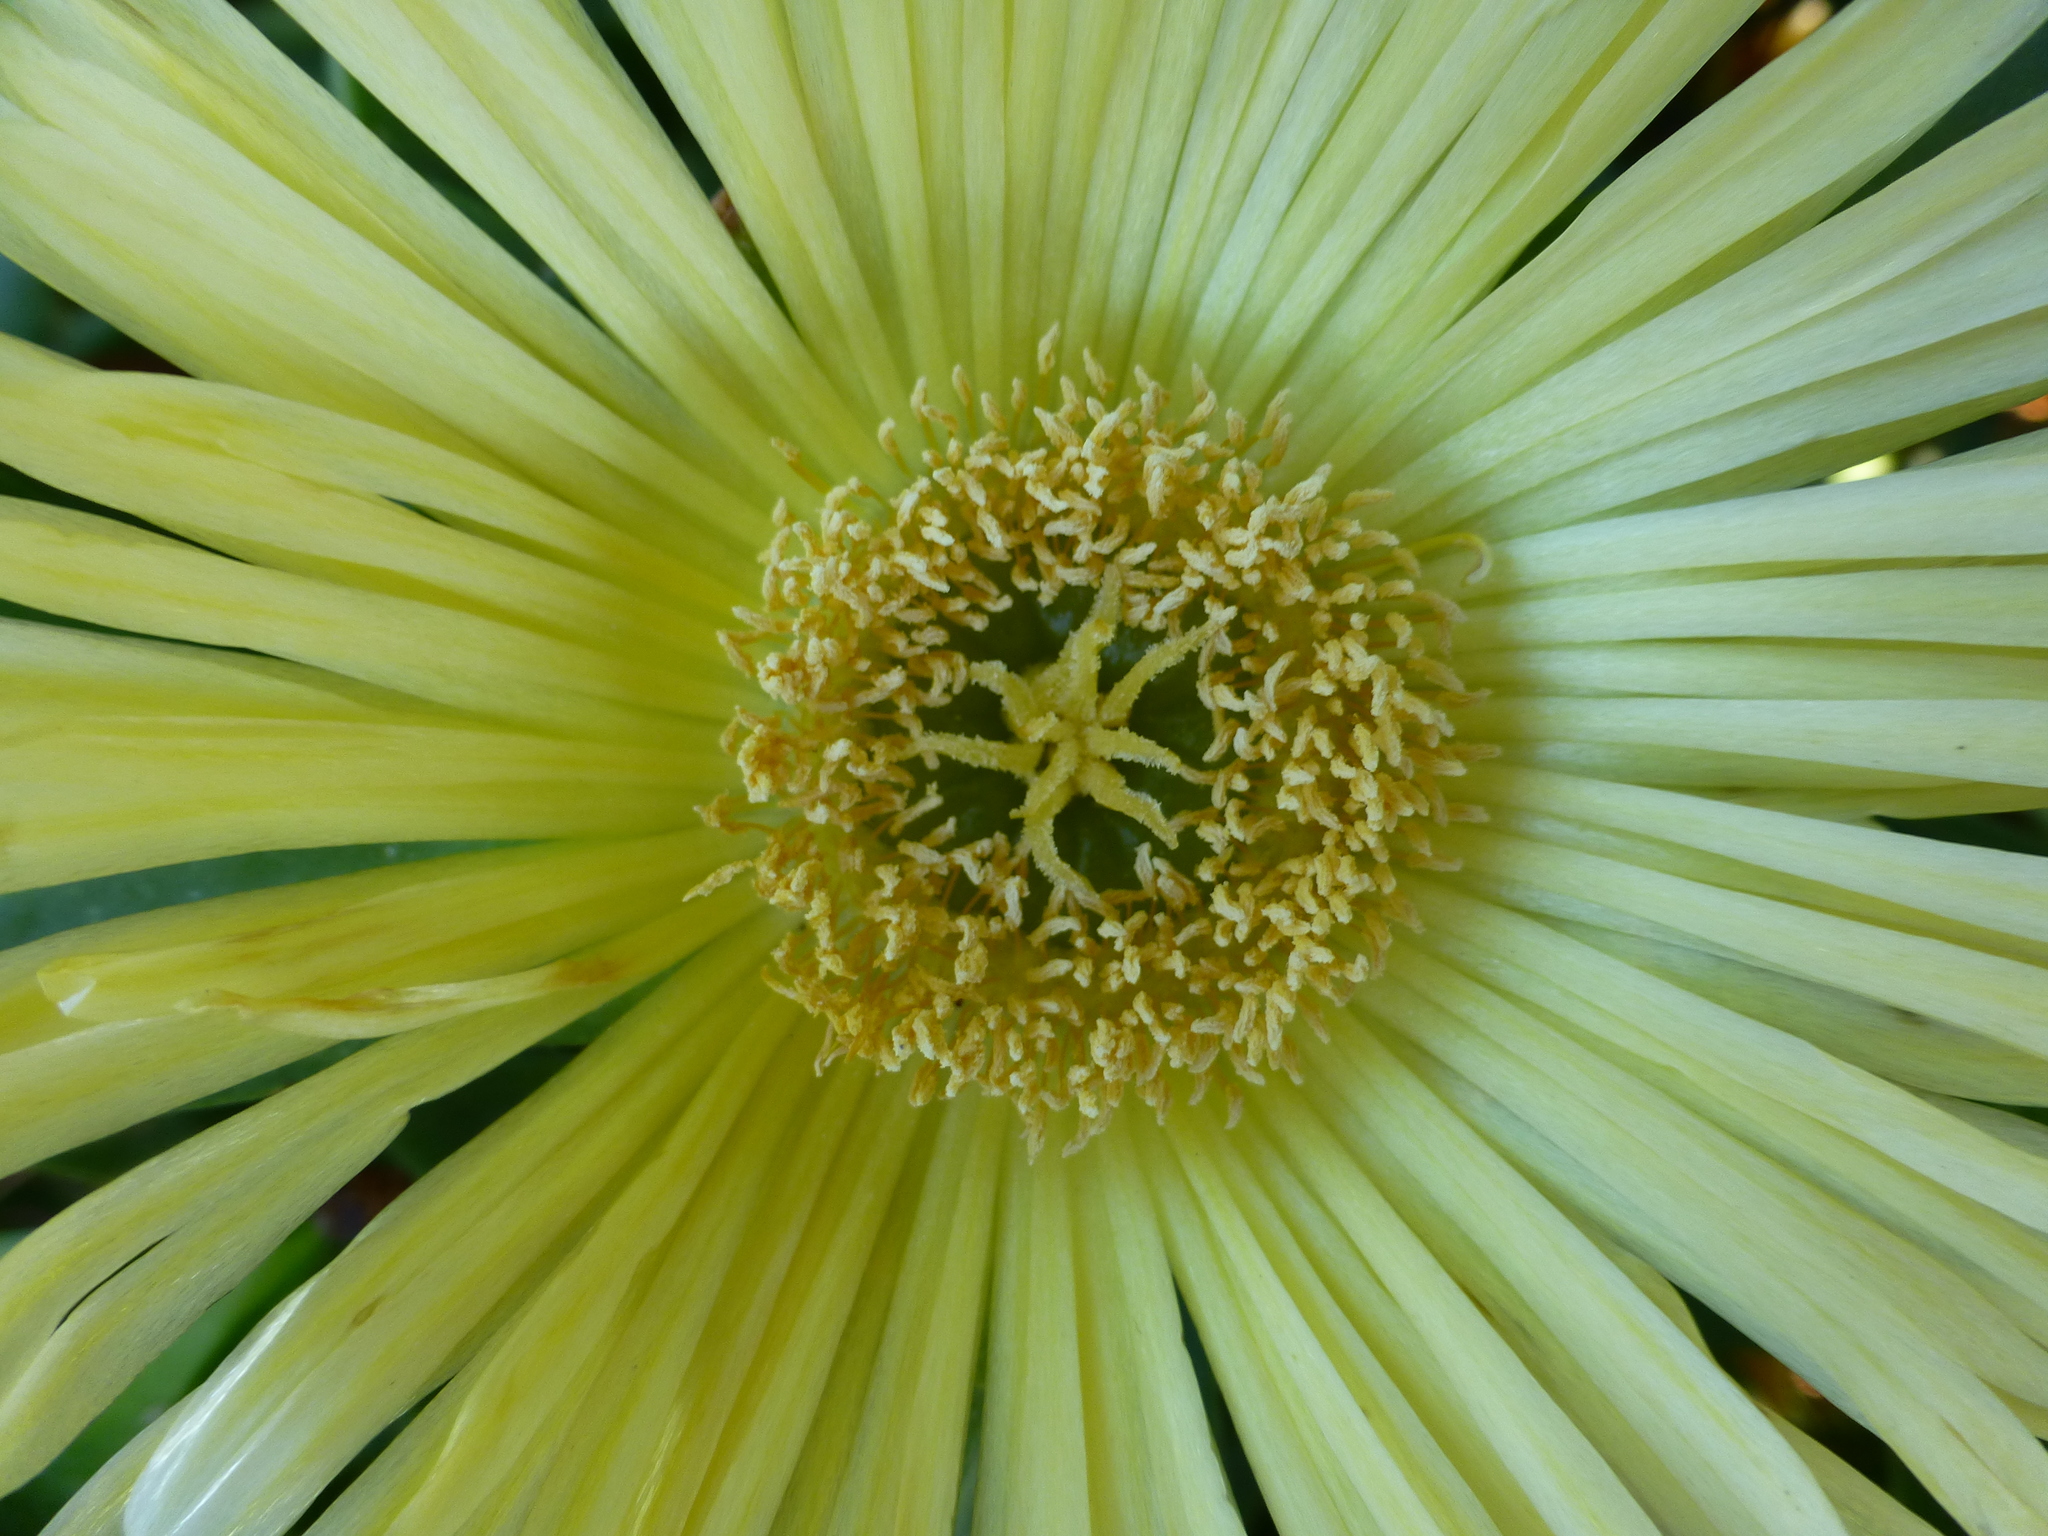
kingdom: Plantae
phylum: Tracheophyta
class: Magnoliopsida
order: Caryophyllales
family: Aizoaceae
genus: Carpobrotus
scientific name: Carpobrotus edulis
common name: Hottentot-fig
